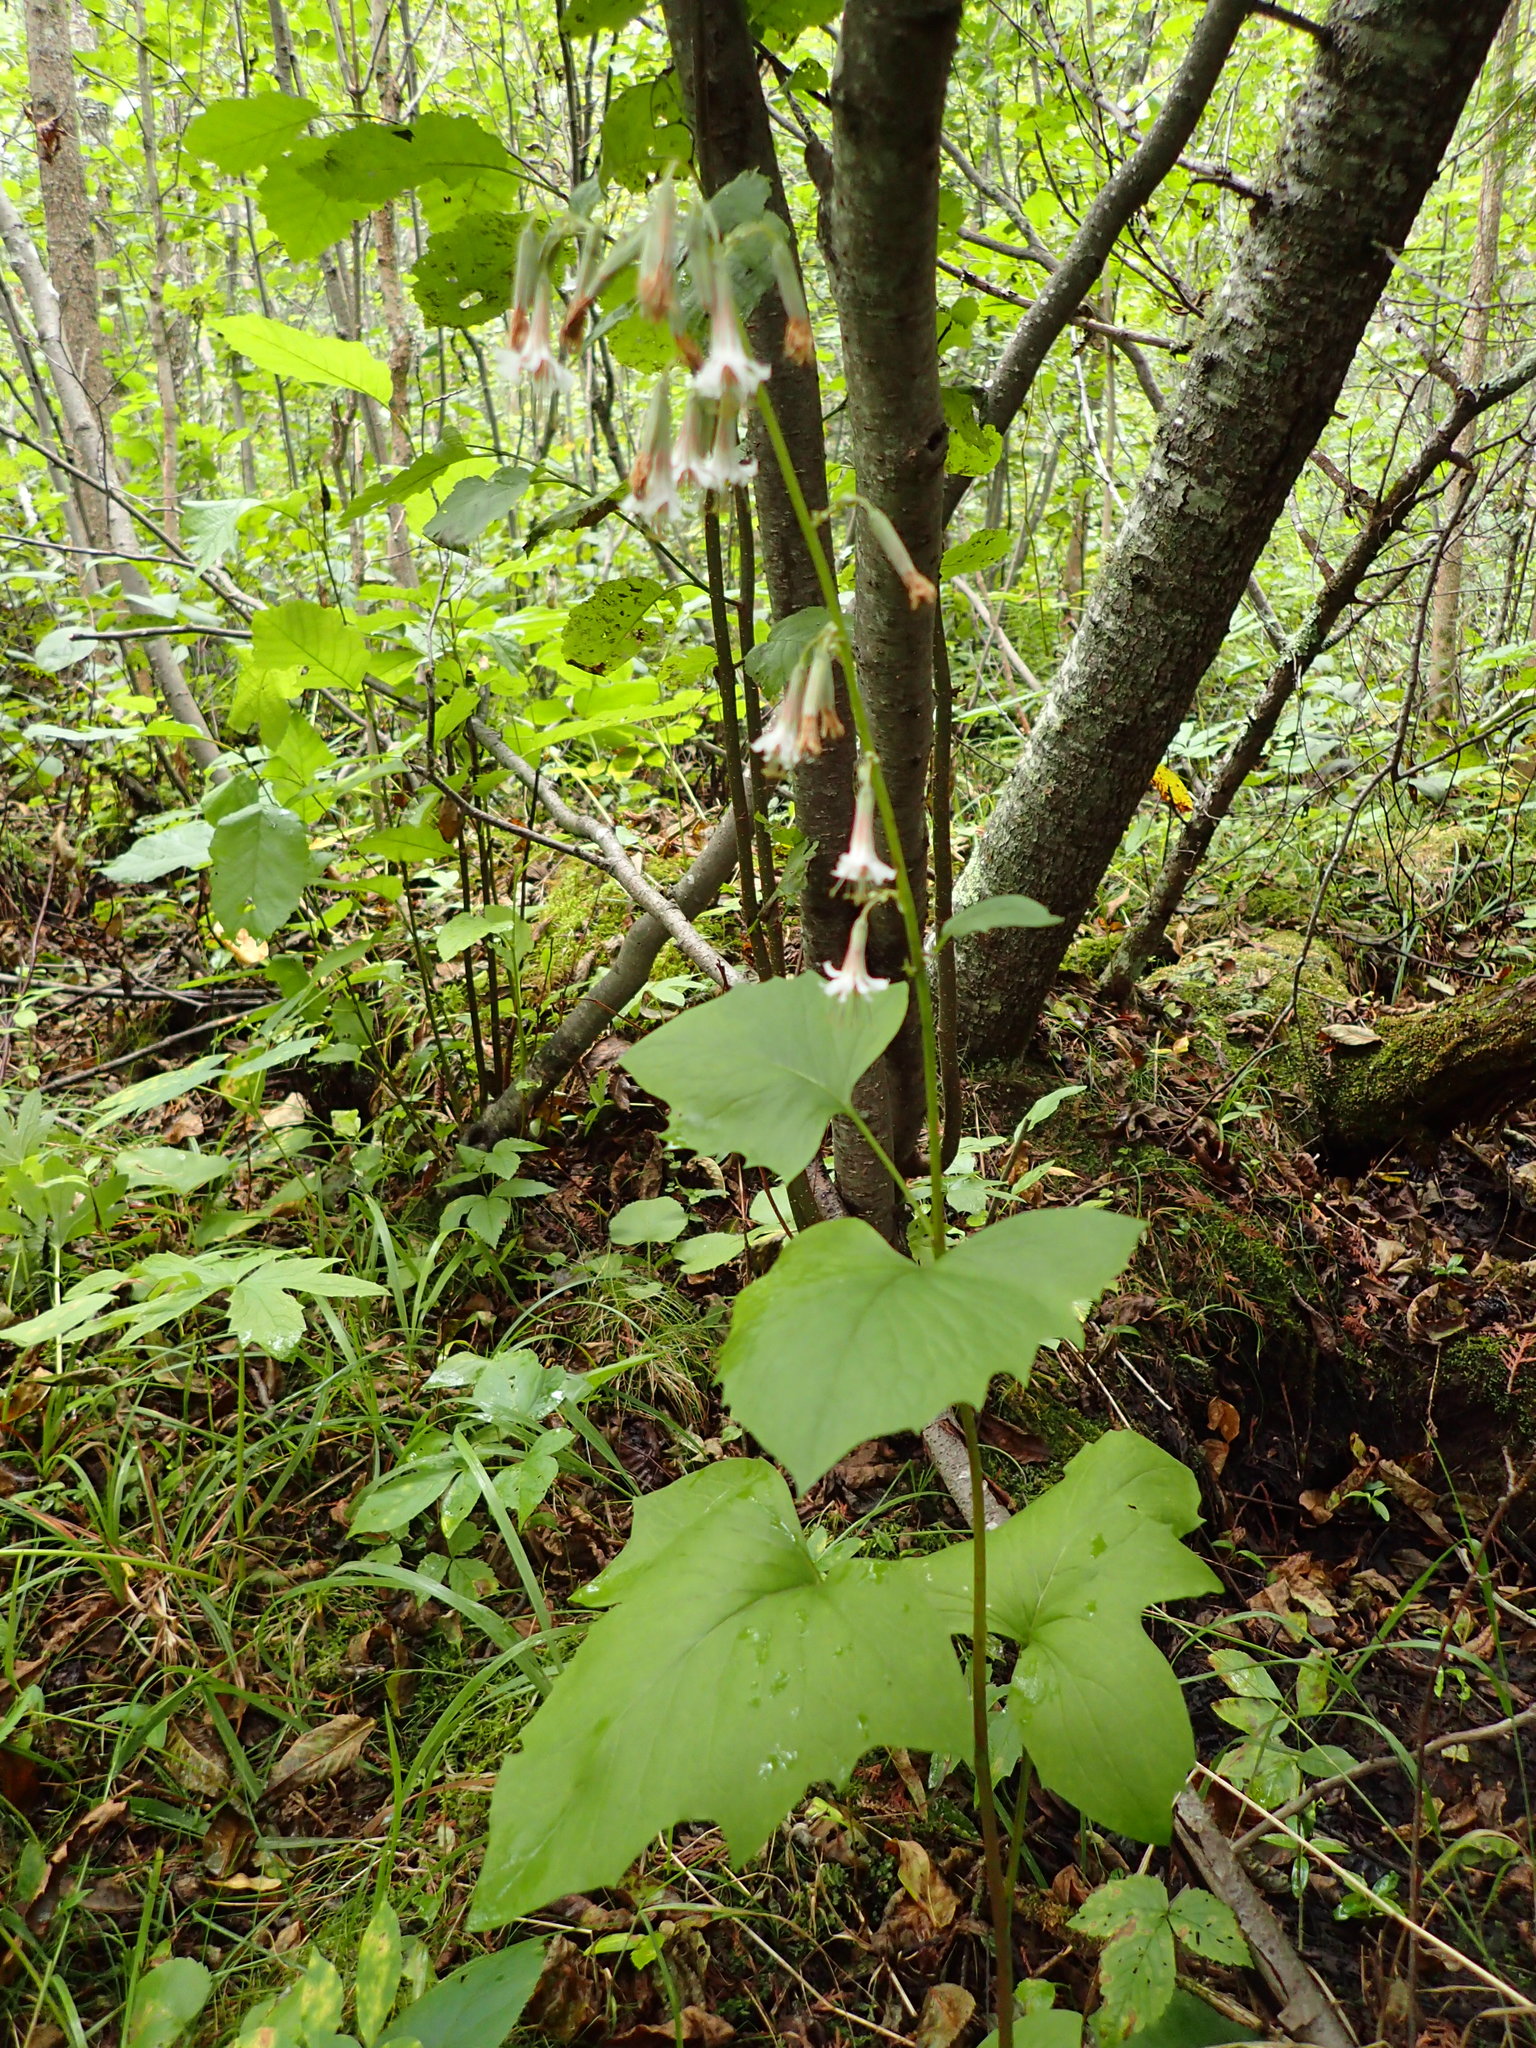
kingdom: Plantae
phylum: Tracheophyta
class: Magnoliopsida
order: Asterales
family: Asteraceae
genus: Nabalus
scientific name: Nabalus albus
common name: White rattlesnakeroot
